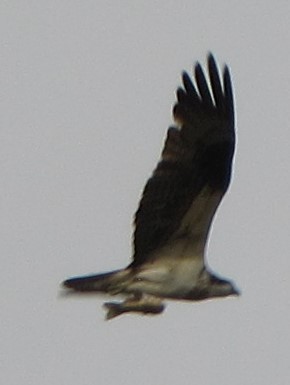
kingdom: Animalia
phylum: Chordata
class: Aves
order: Accipitriformes
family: Pandionidae
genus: Pandion
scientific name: Pandion haliaetus
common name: Osprey
